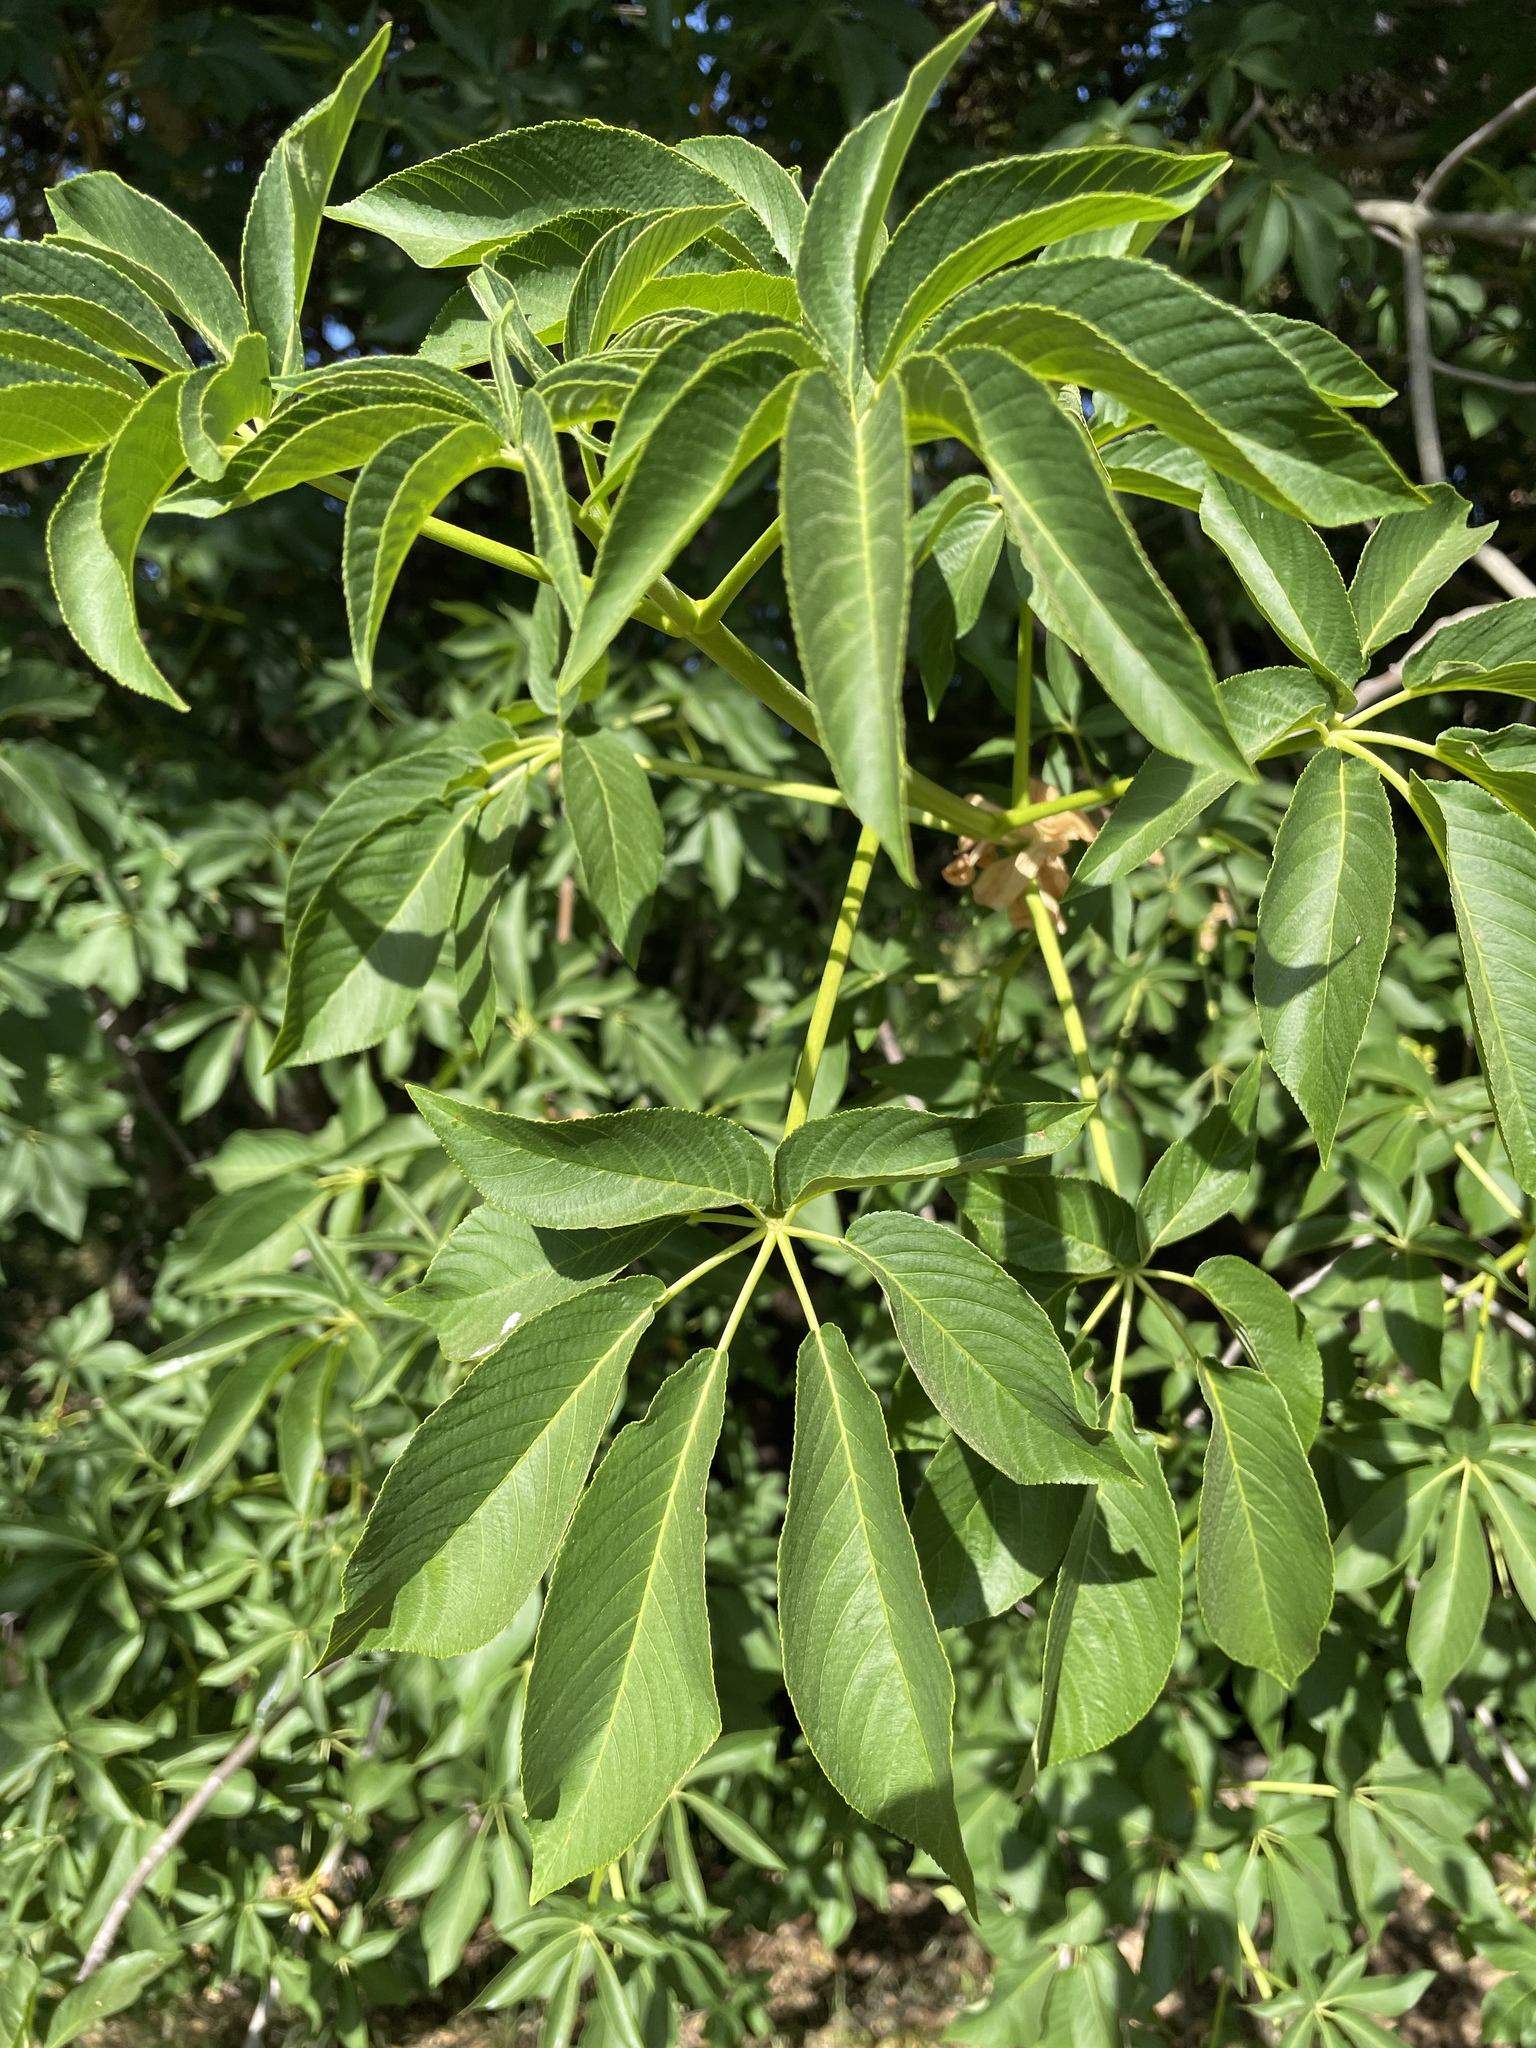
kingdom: Plantae
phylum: Tracheophyta
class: Magnoliopsida
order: Sapindales
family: Sapindaceae
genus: Aesculus
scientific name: Aesculus californica
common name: California buckeye
